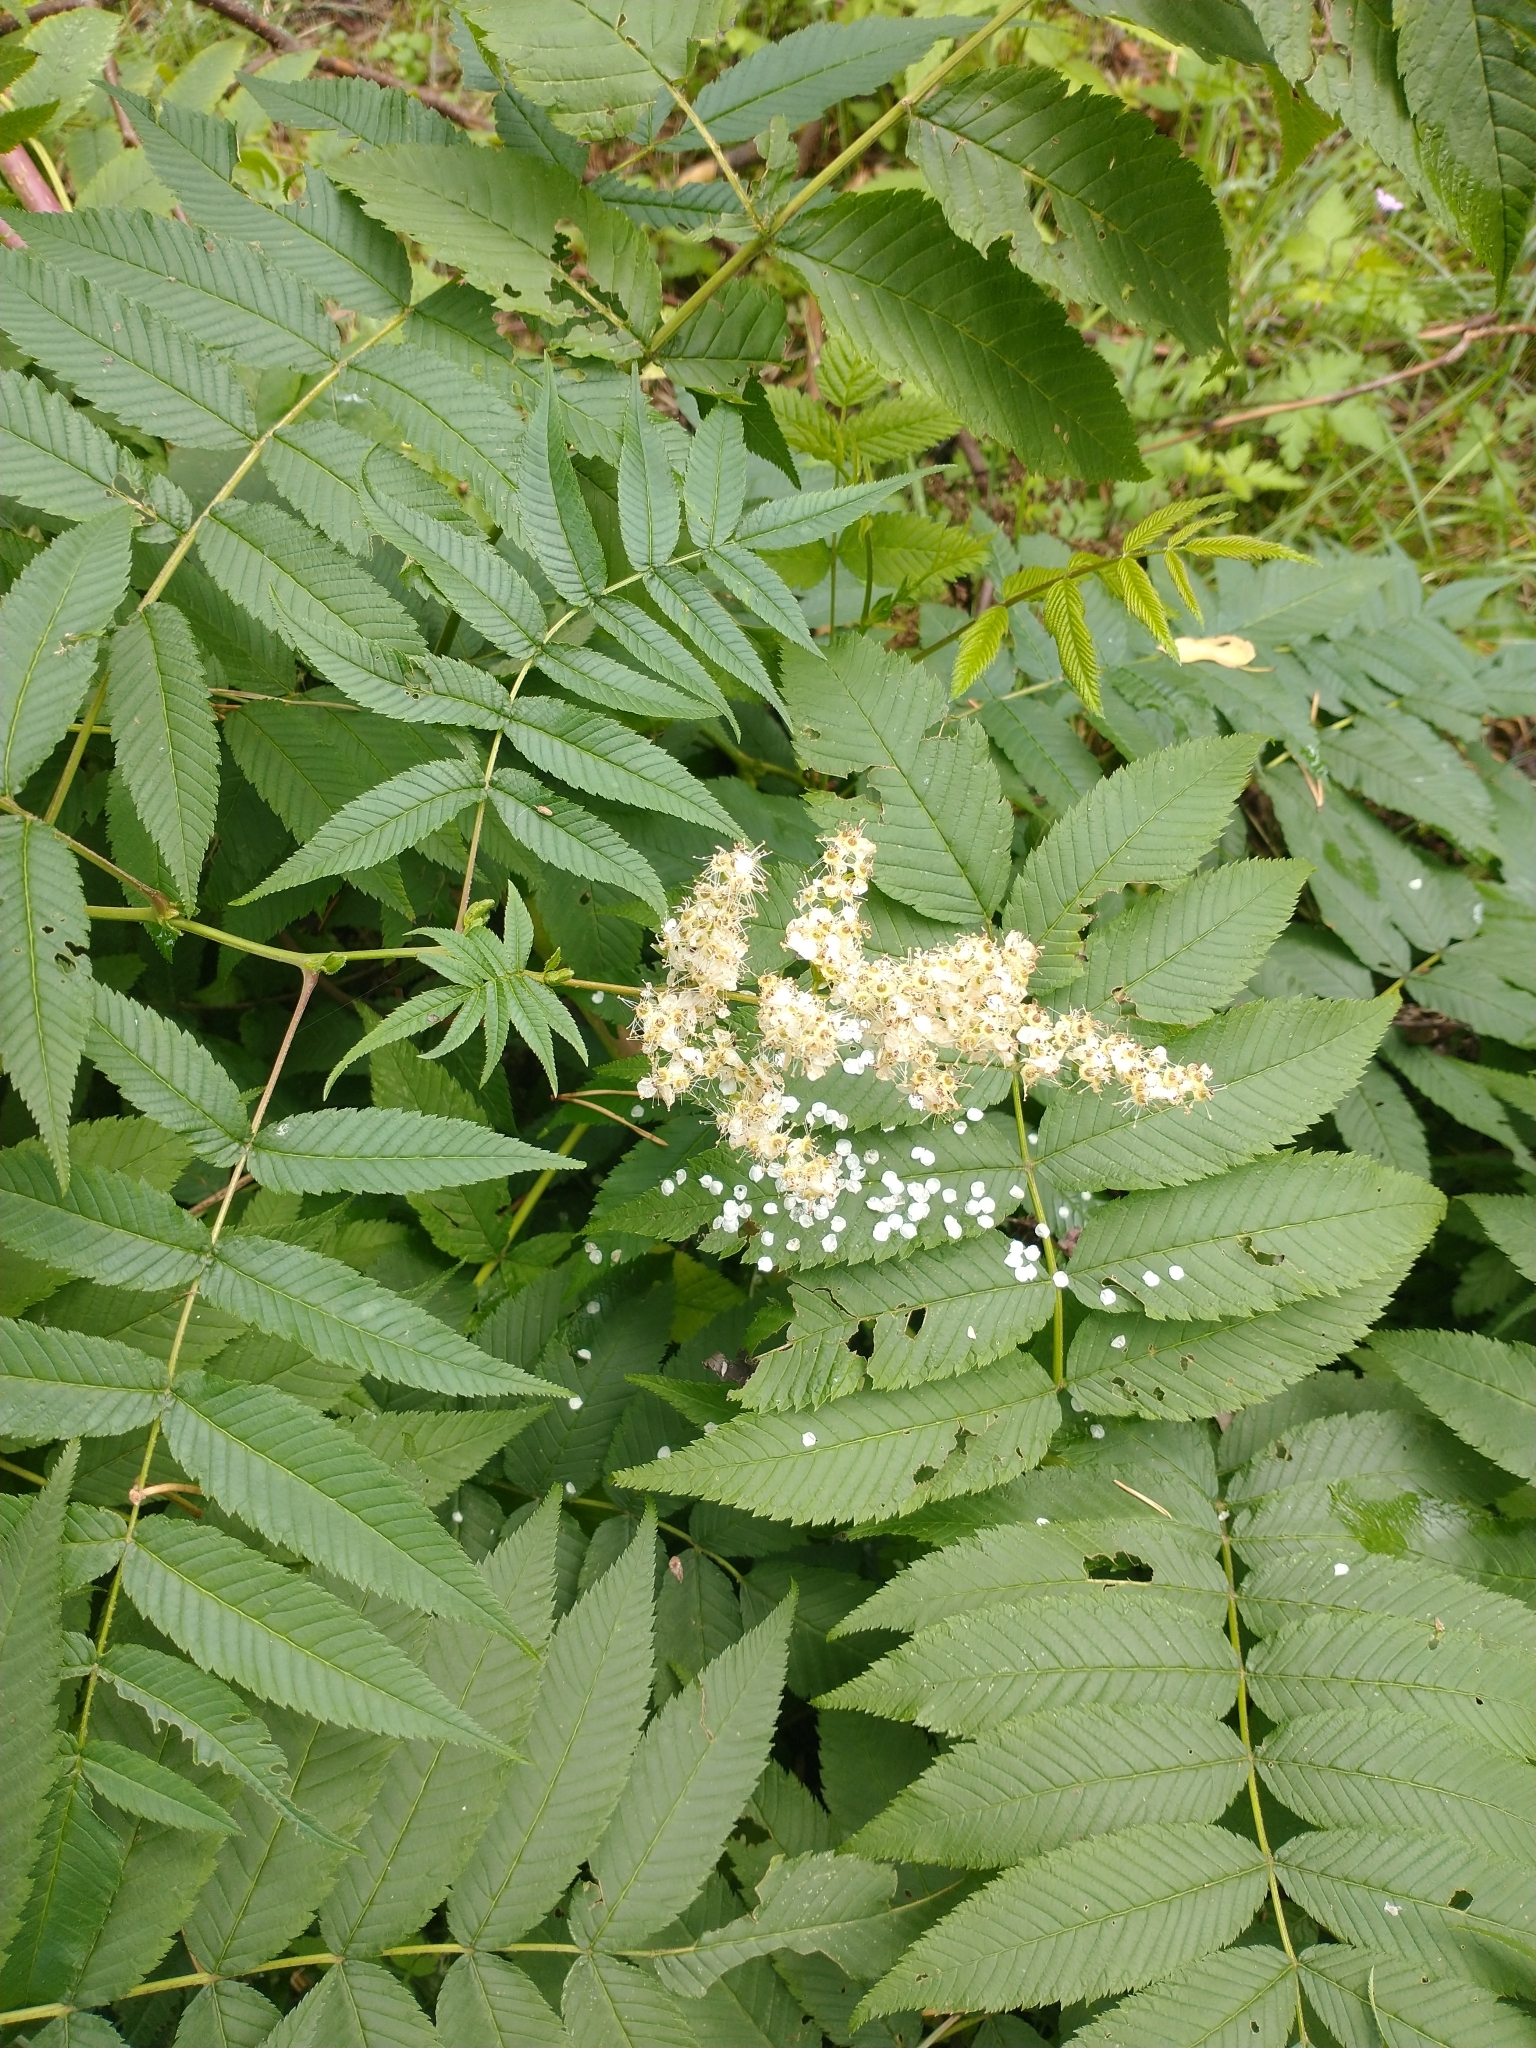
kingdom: Plantae
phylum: Tracheophyta
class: Magnoliopsida
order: Rosales
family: Rosaceae
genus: Sorbaria
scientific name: Sorbaria sorbifolia
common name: False spiraea
